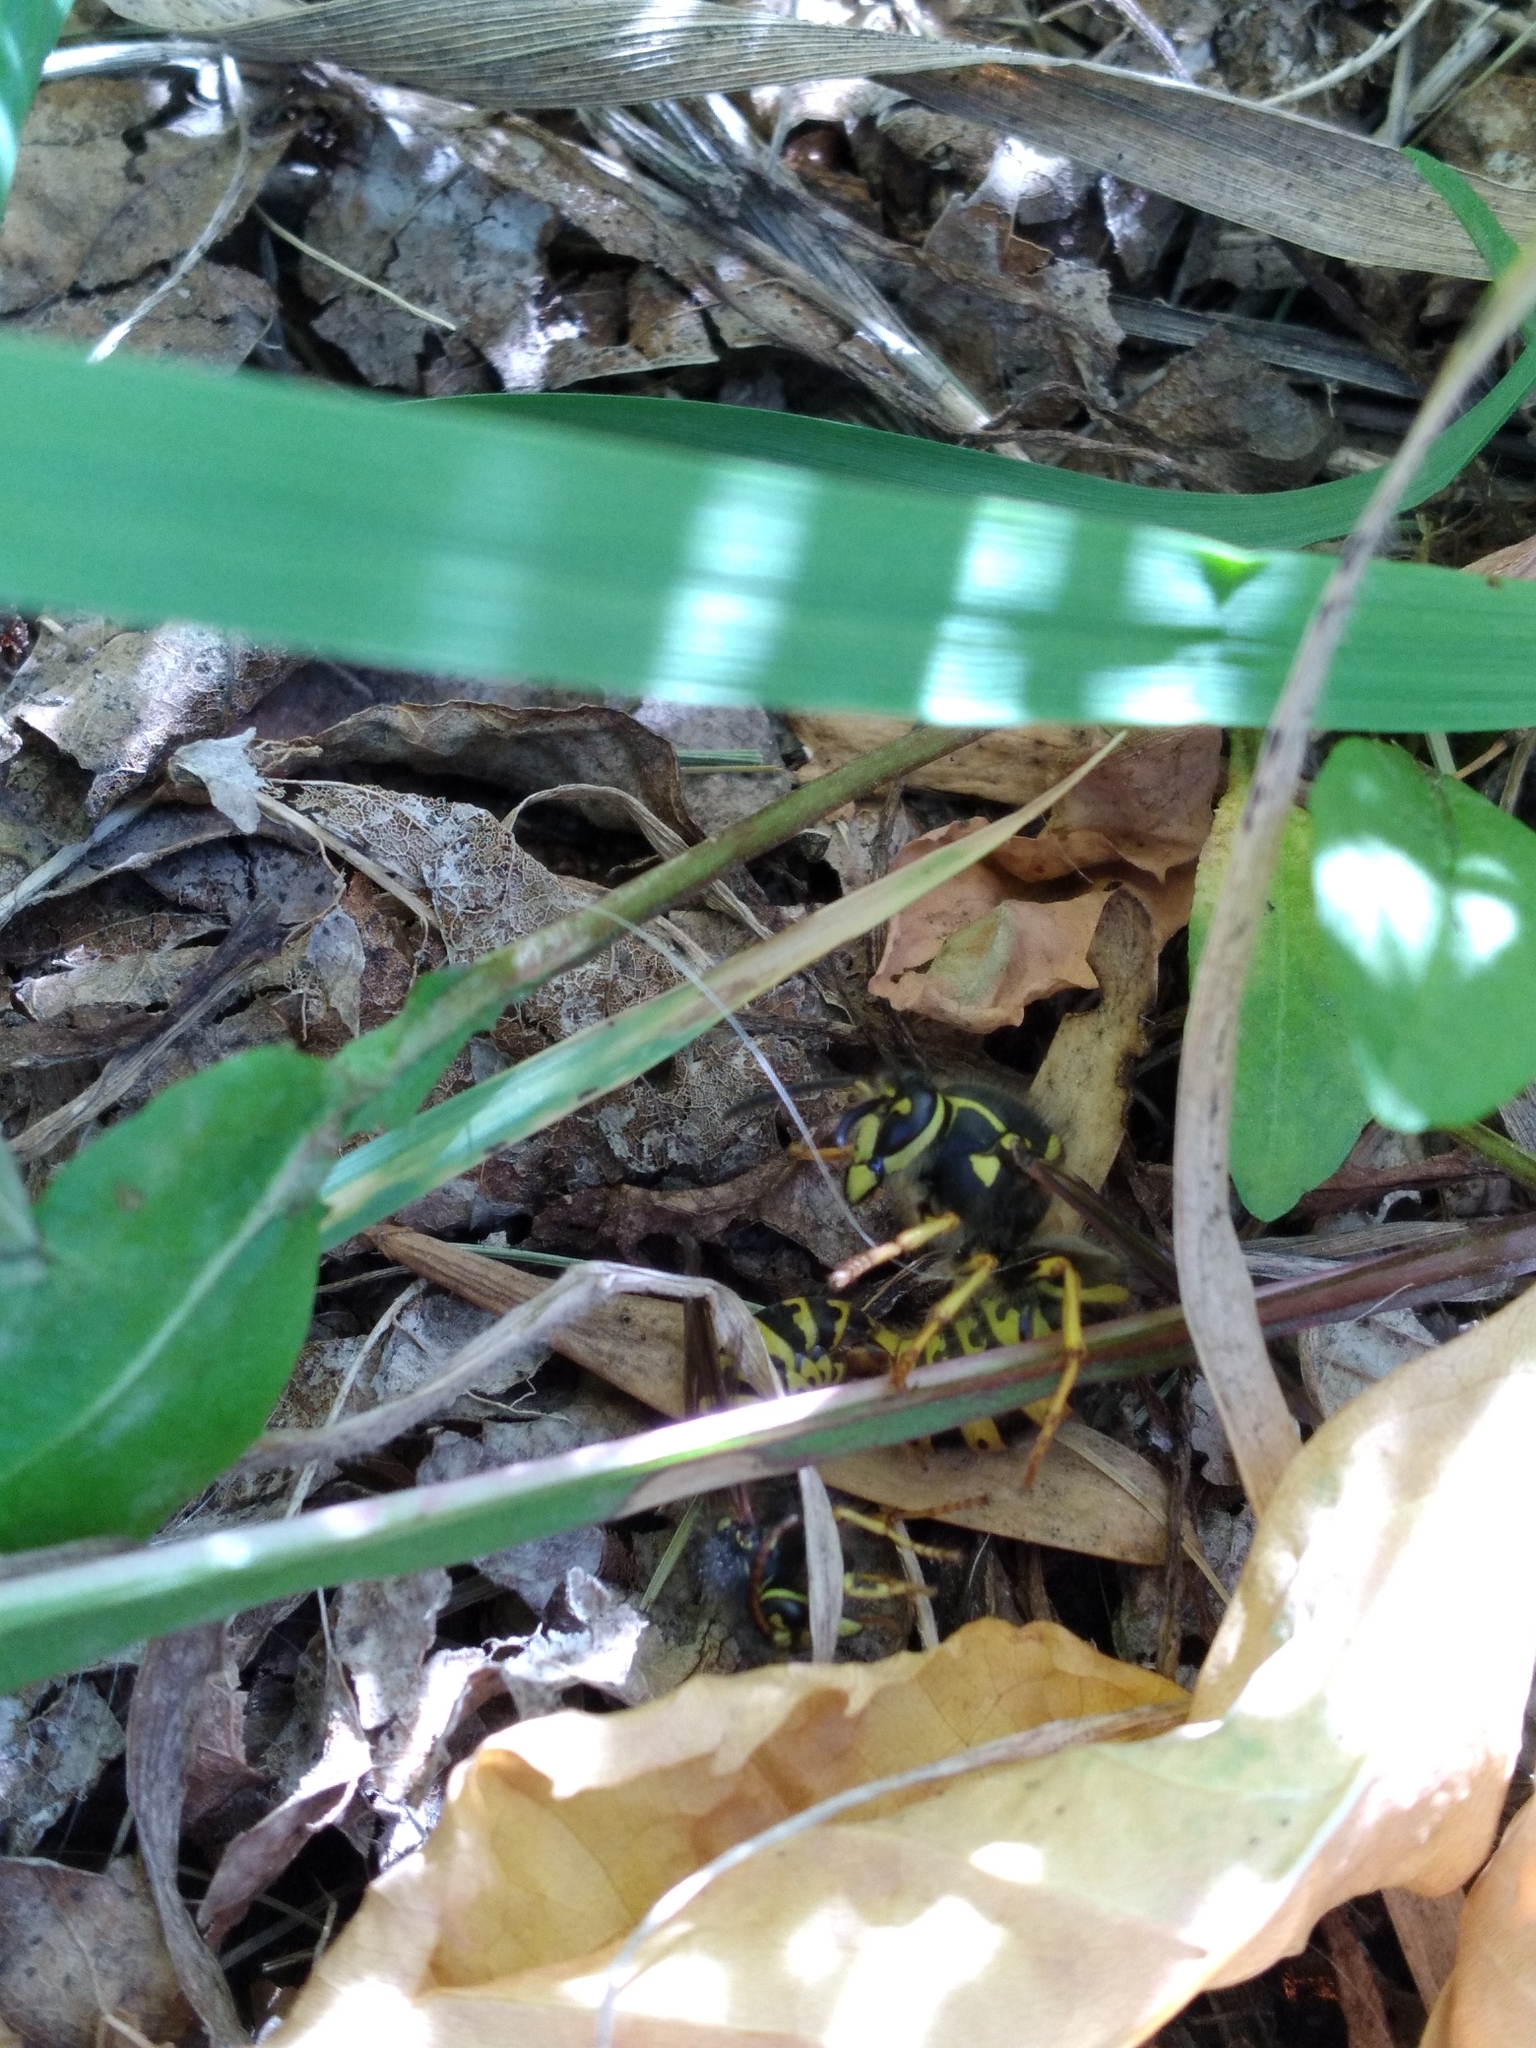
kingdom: Animalia
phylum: Arthropoda
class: Insecta
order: Hymenoptera
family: Vespidae
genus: Dolichovespula
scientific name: Dolichovespula arenaria
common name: Aerial yellowjacket
